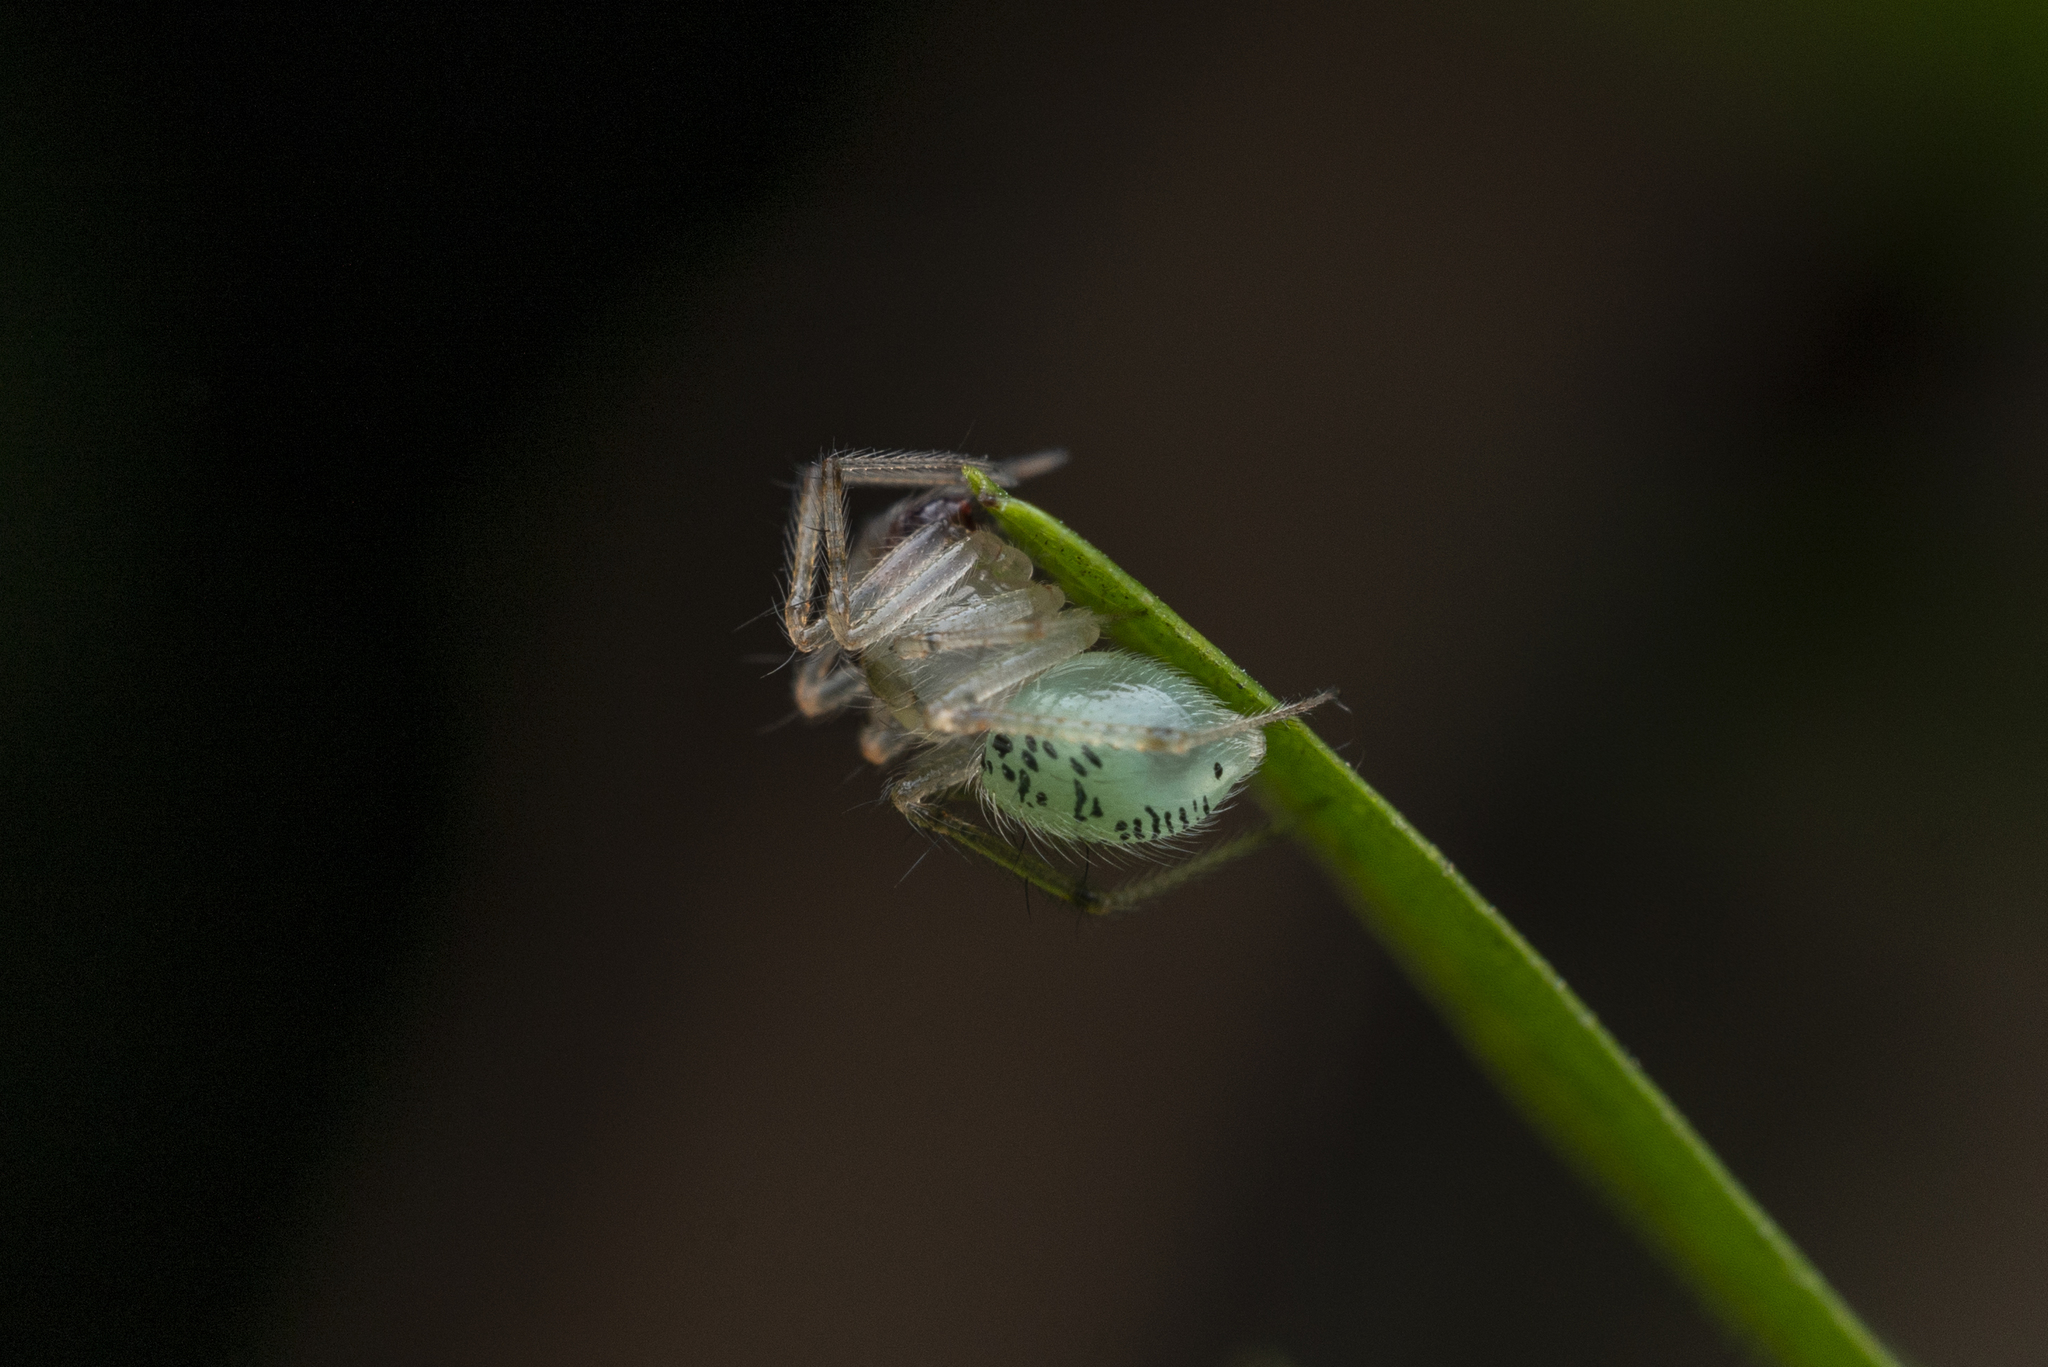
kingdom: Animalia
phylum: Arthropoda
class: Arachnida
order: Araneae
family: Theridiidae
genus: Phycosoma
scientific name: Phycosoma digitula
